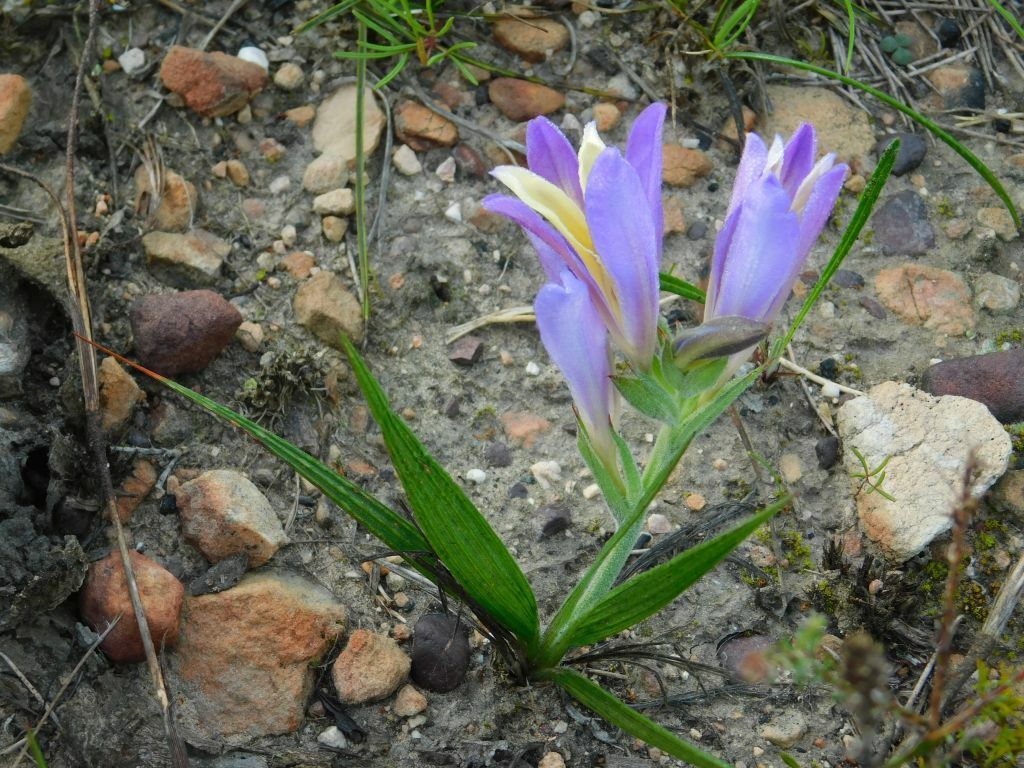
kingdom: Plantae
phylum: Tracheophyta
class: Liliopsida
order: Asparagales
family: Iridaceae
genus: Babiana
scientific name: Babiana patula
